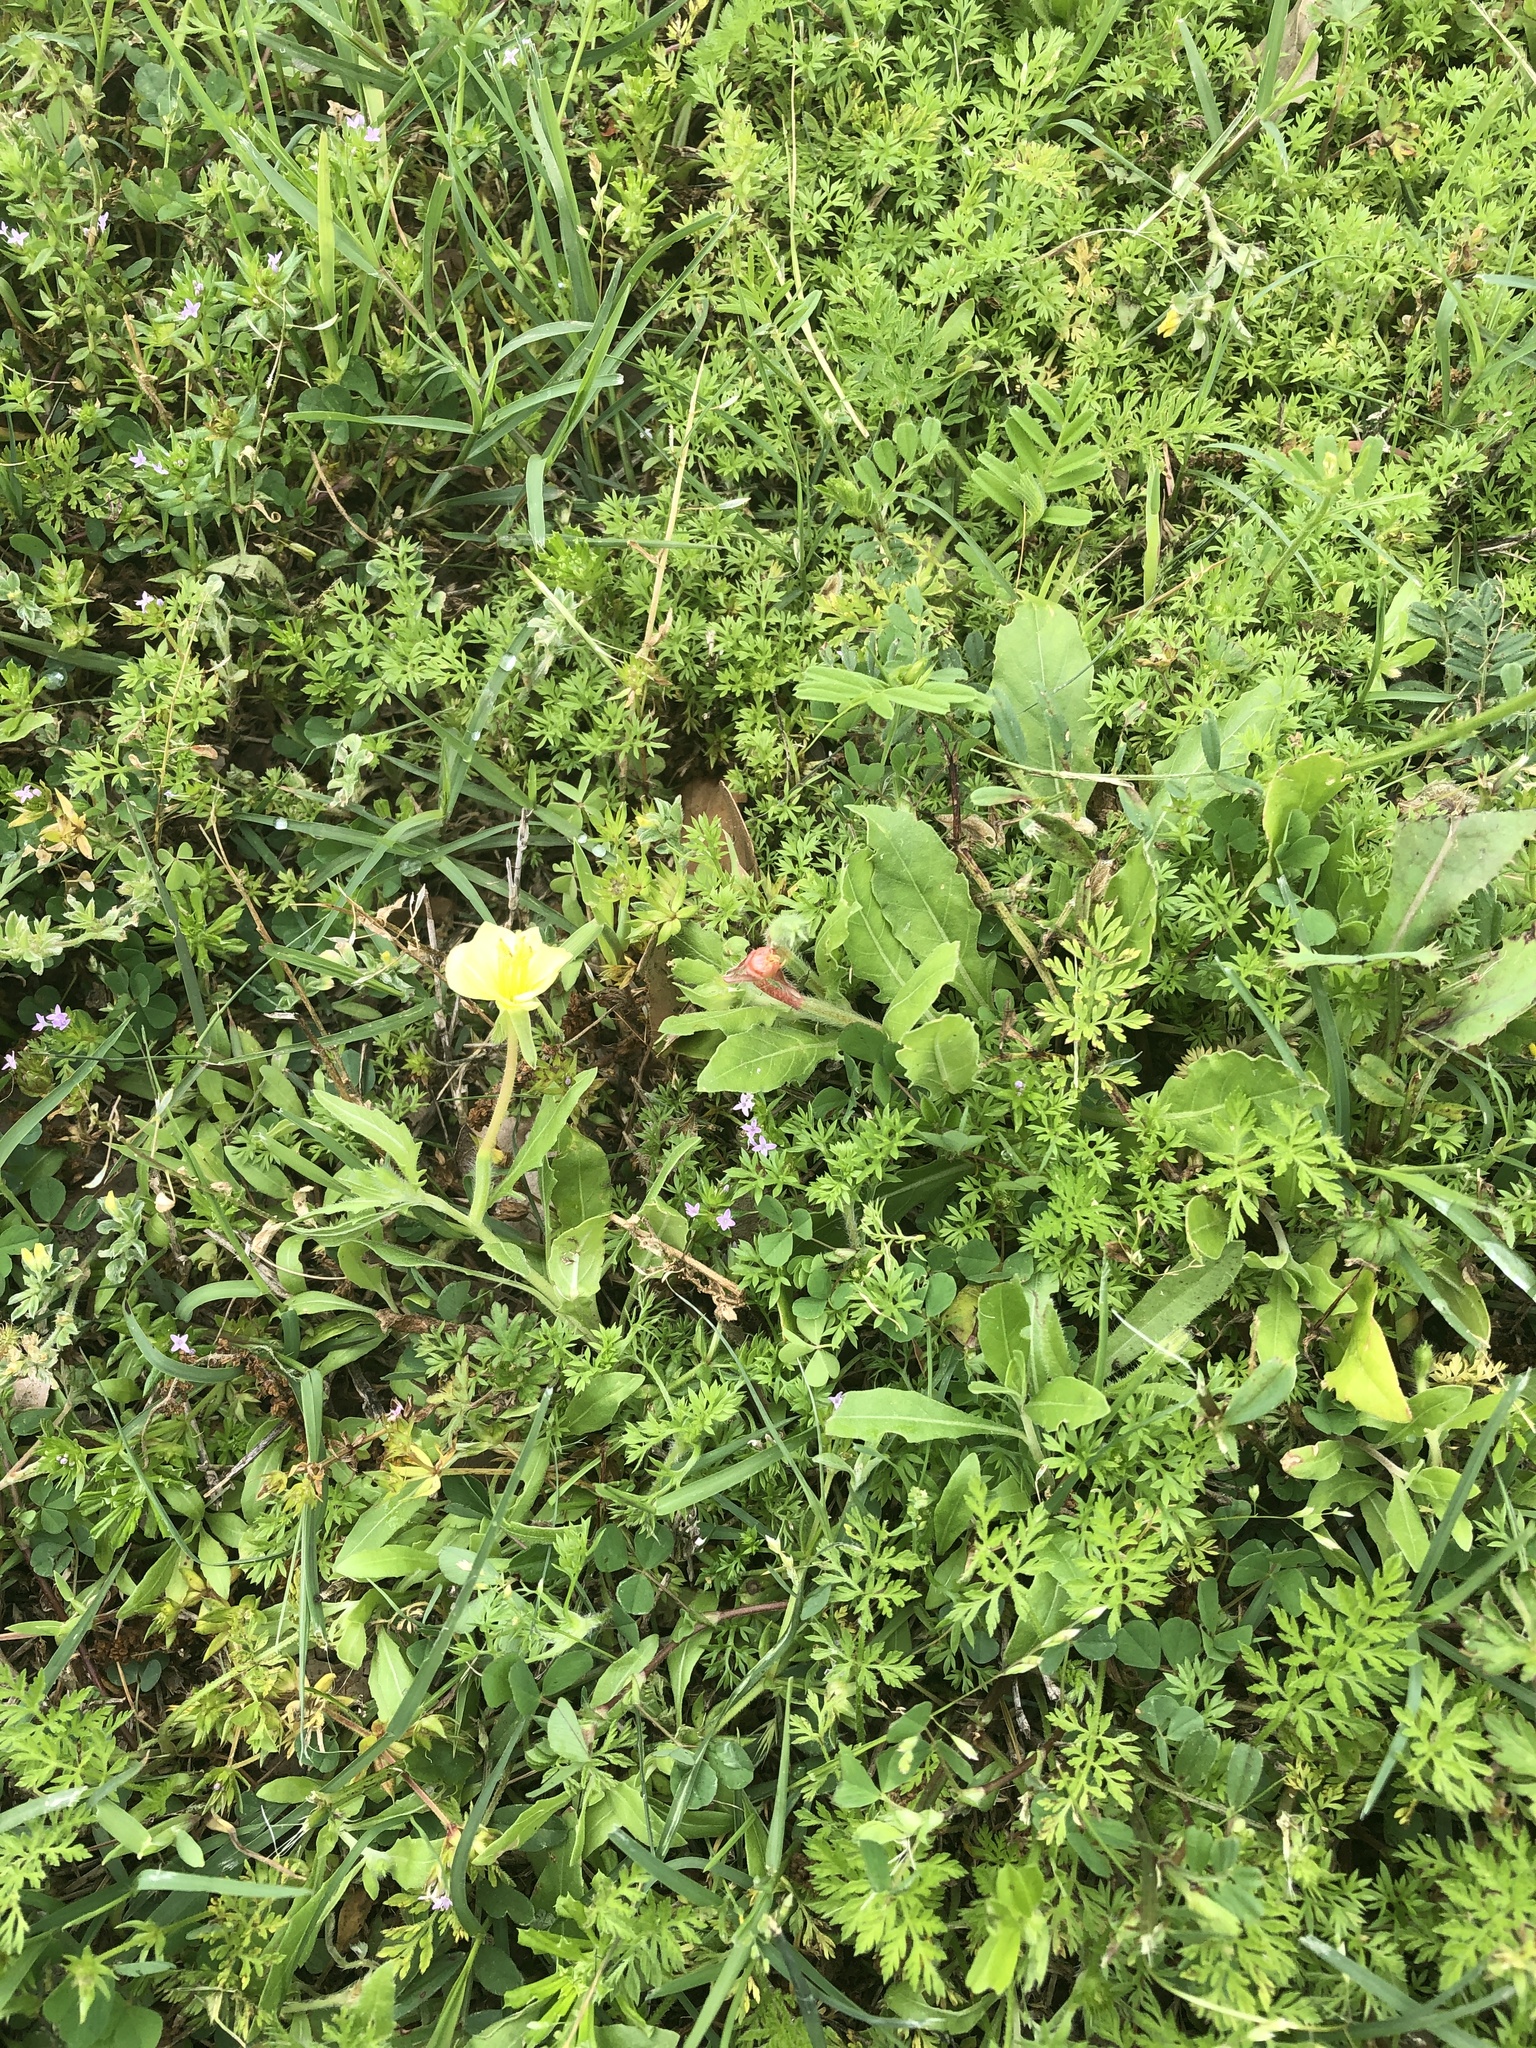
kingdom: Plantae
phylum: Tracheophyta
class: Magnoliopsida
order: Myrtales
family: Onagraceae
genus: Oenothera
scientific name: Oenothera laciniata
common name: Cut-leaved evening-primrose
